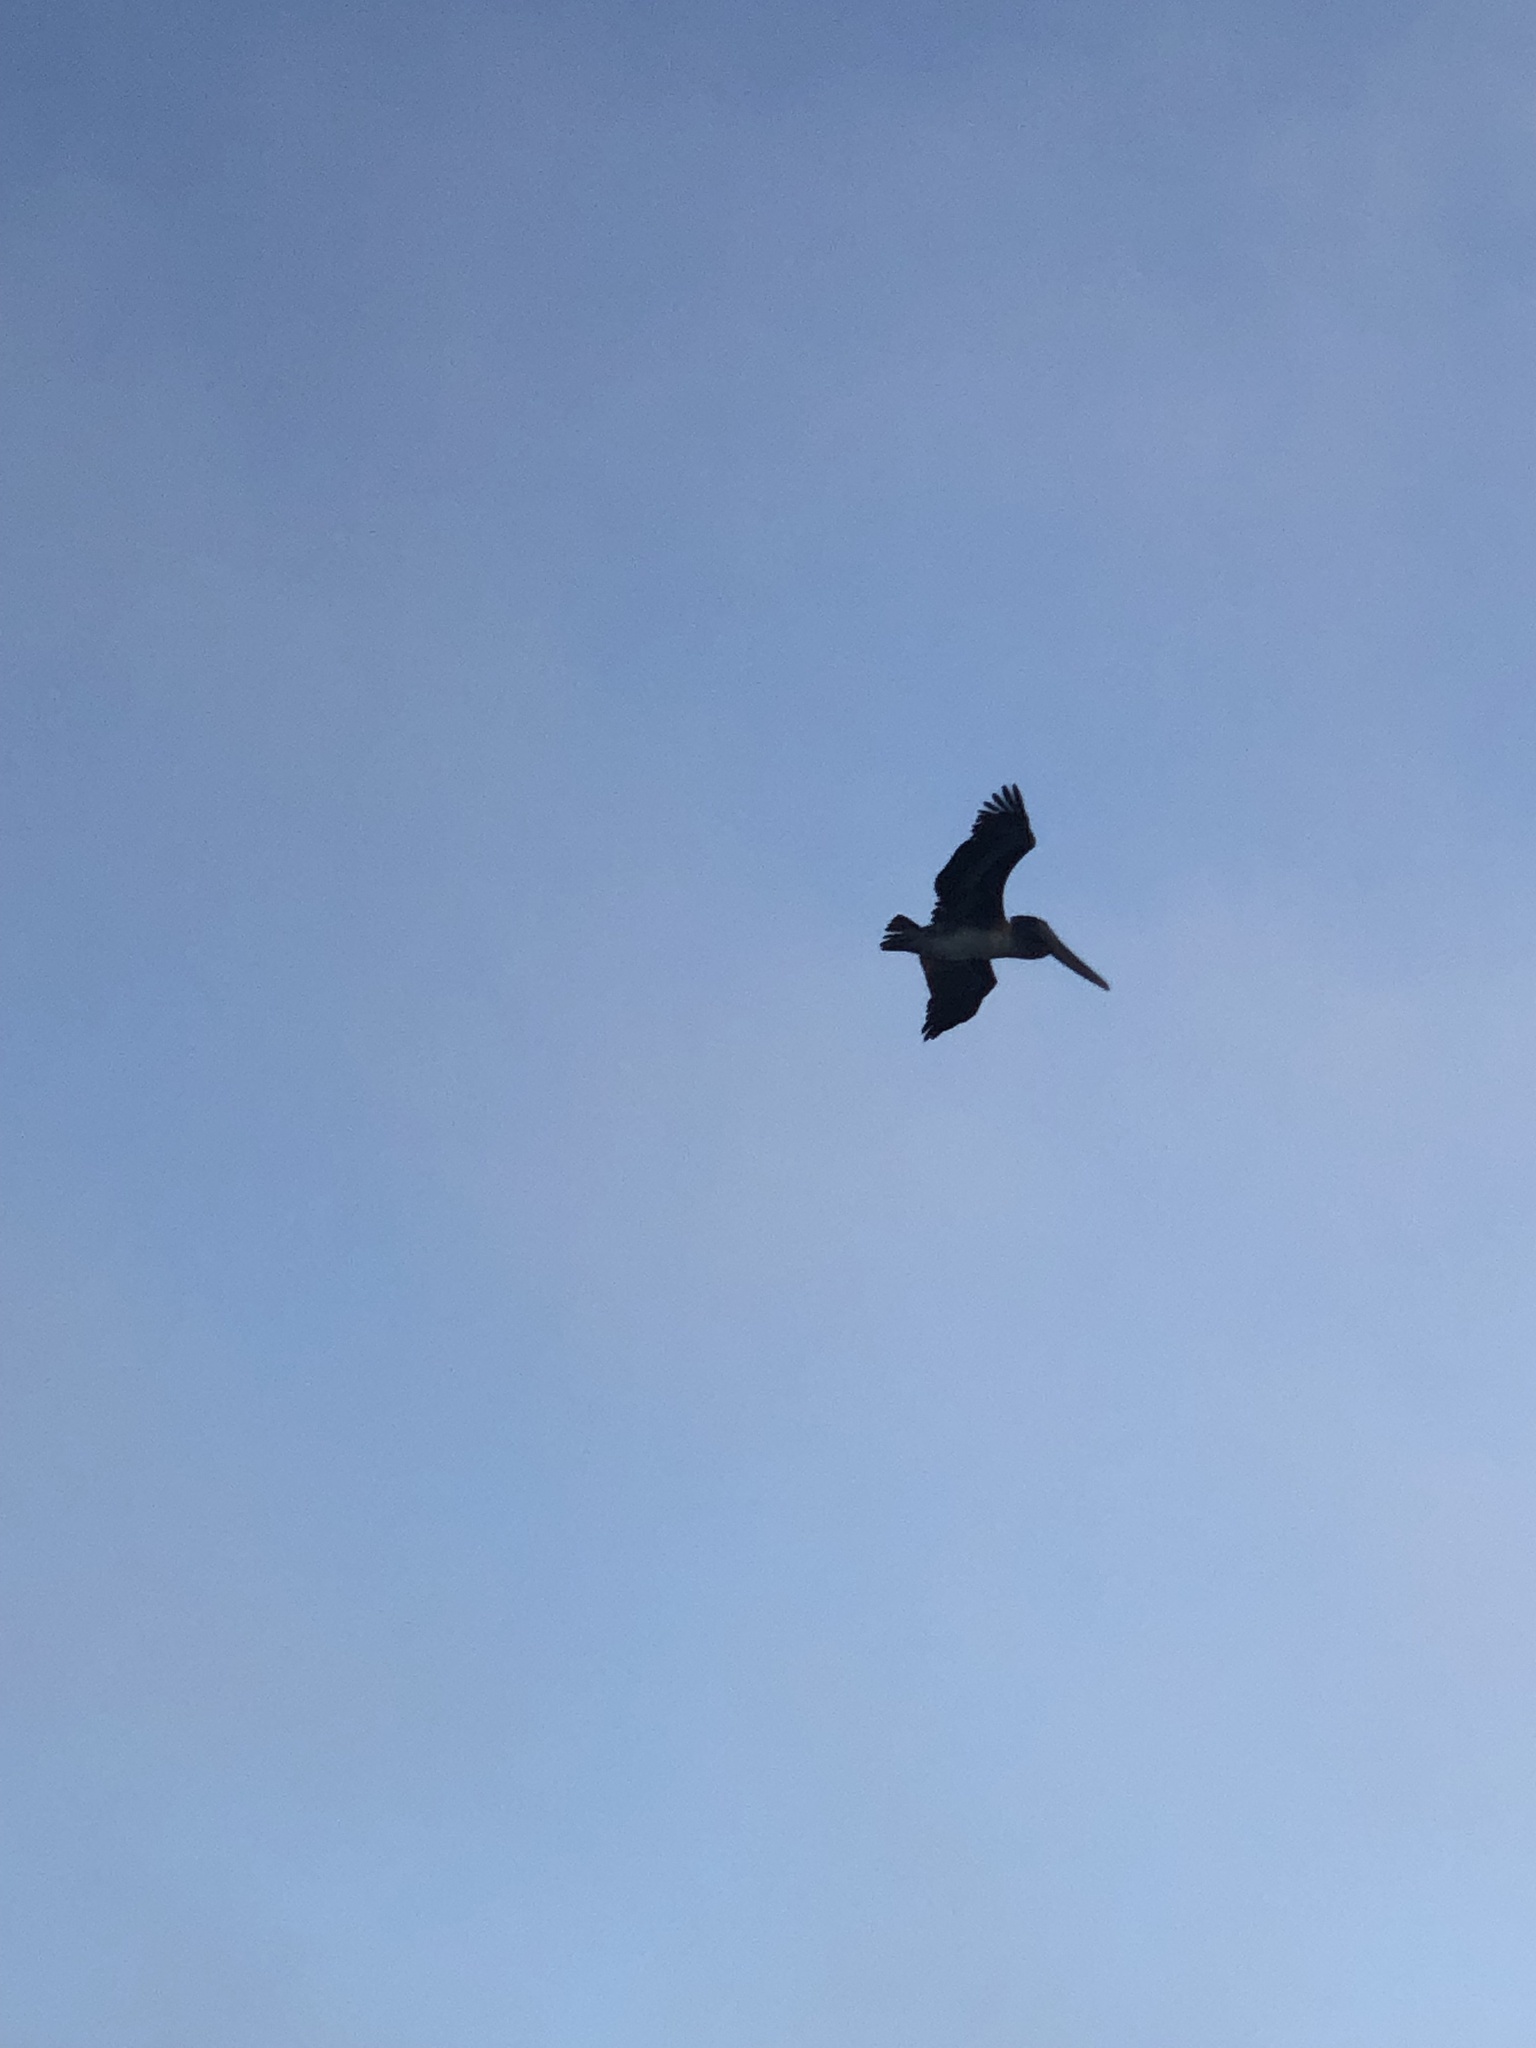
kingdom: Animalia
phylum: Chordata
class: Aves
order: Pelecaniformes
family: Pelecanidae
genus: Pelecanus
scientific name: Pelecanus occidentalis
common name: Brown pelican
